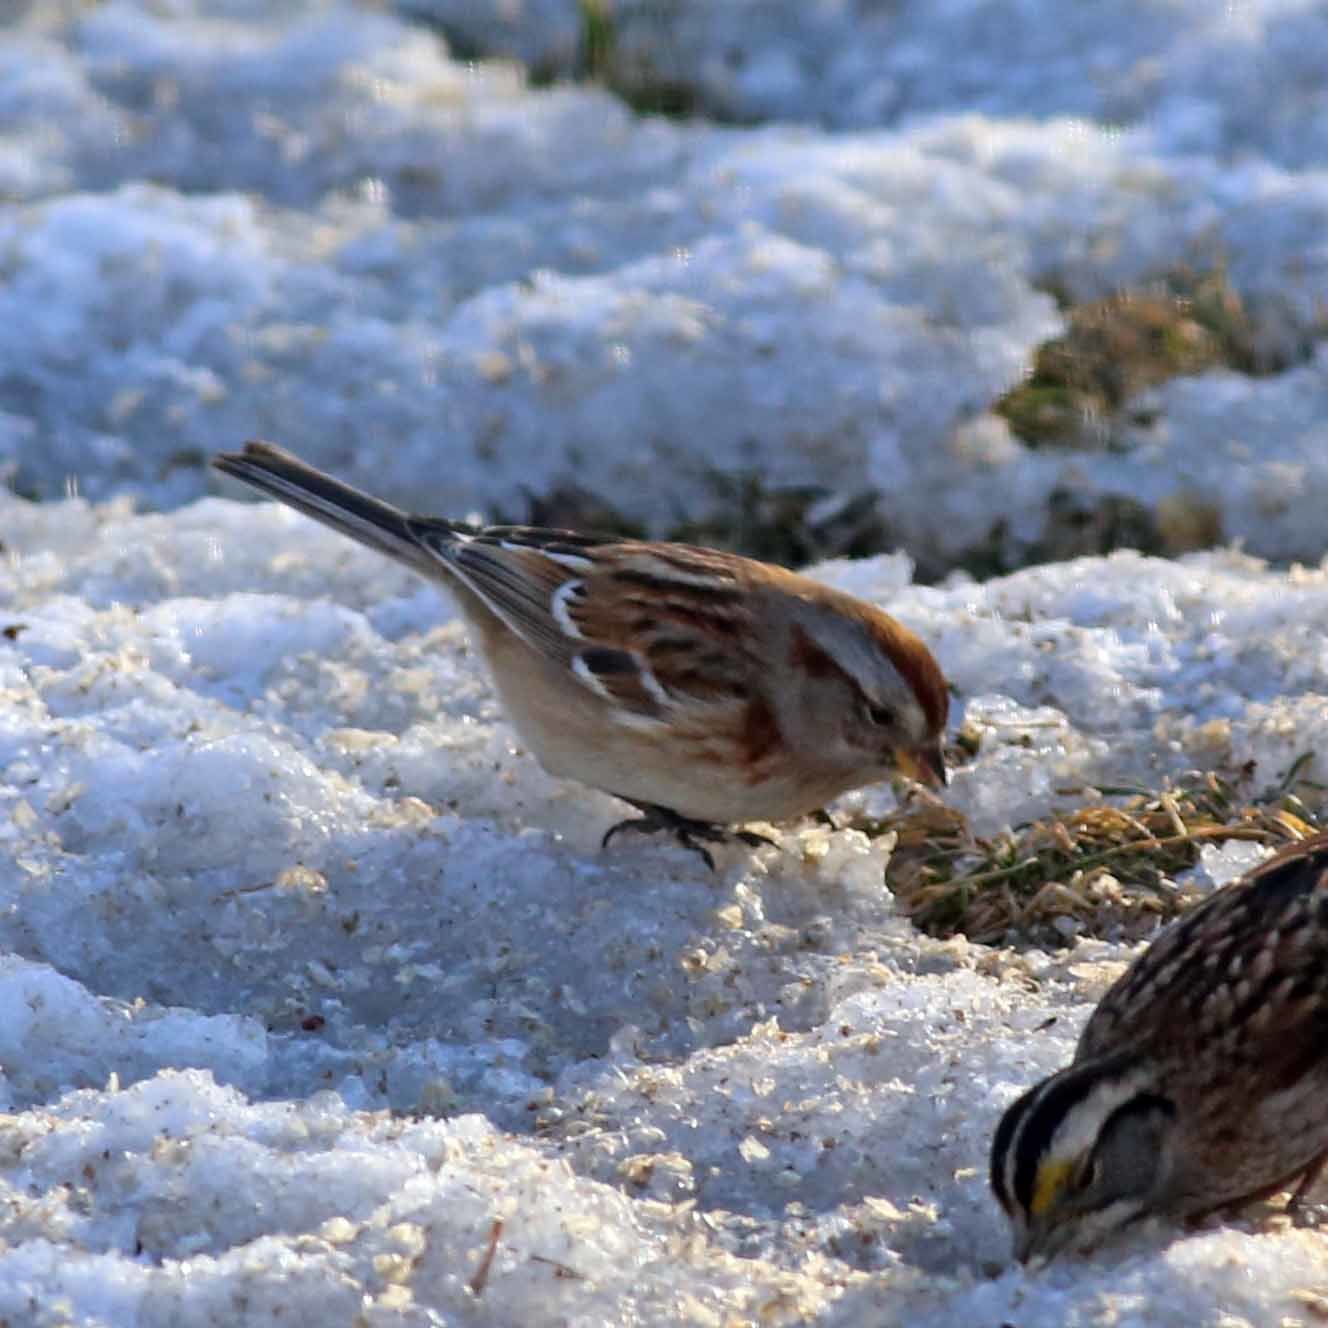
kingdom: Animalia
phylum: Chordata
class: Aves
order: Passeriformes
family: Passerellidae
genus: Spizelloides
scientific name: Spizelloides arborea
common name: American tree sparrow
